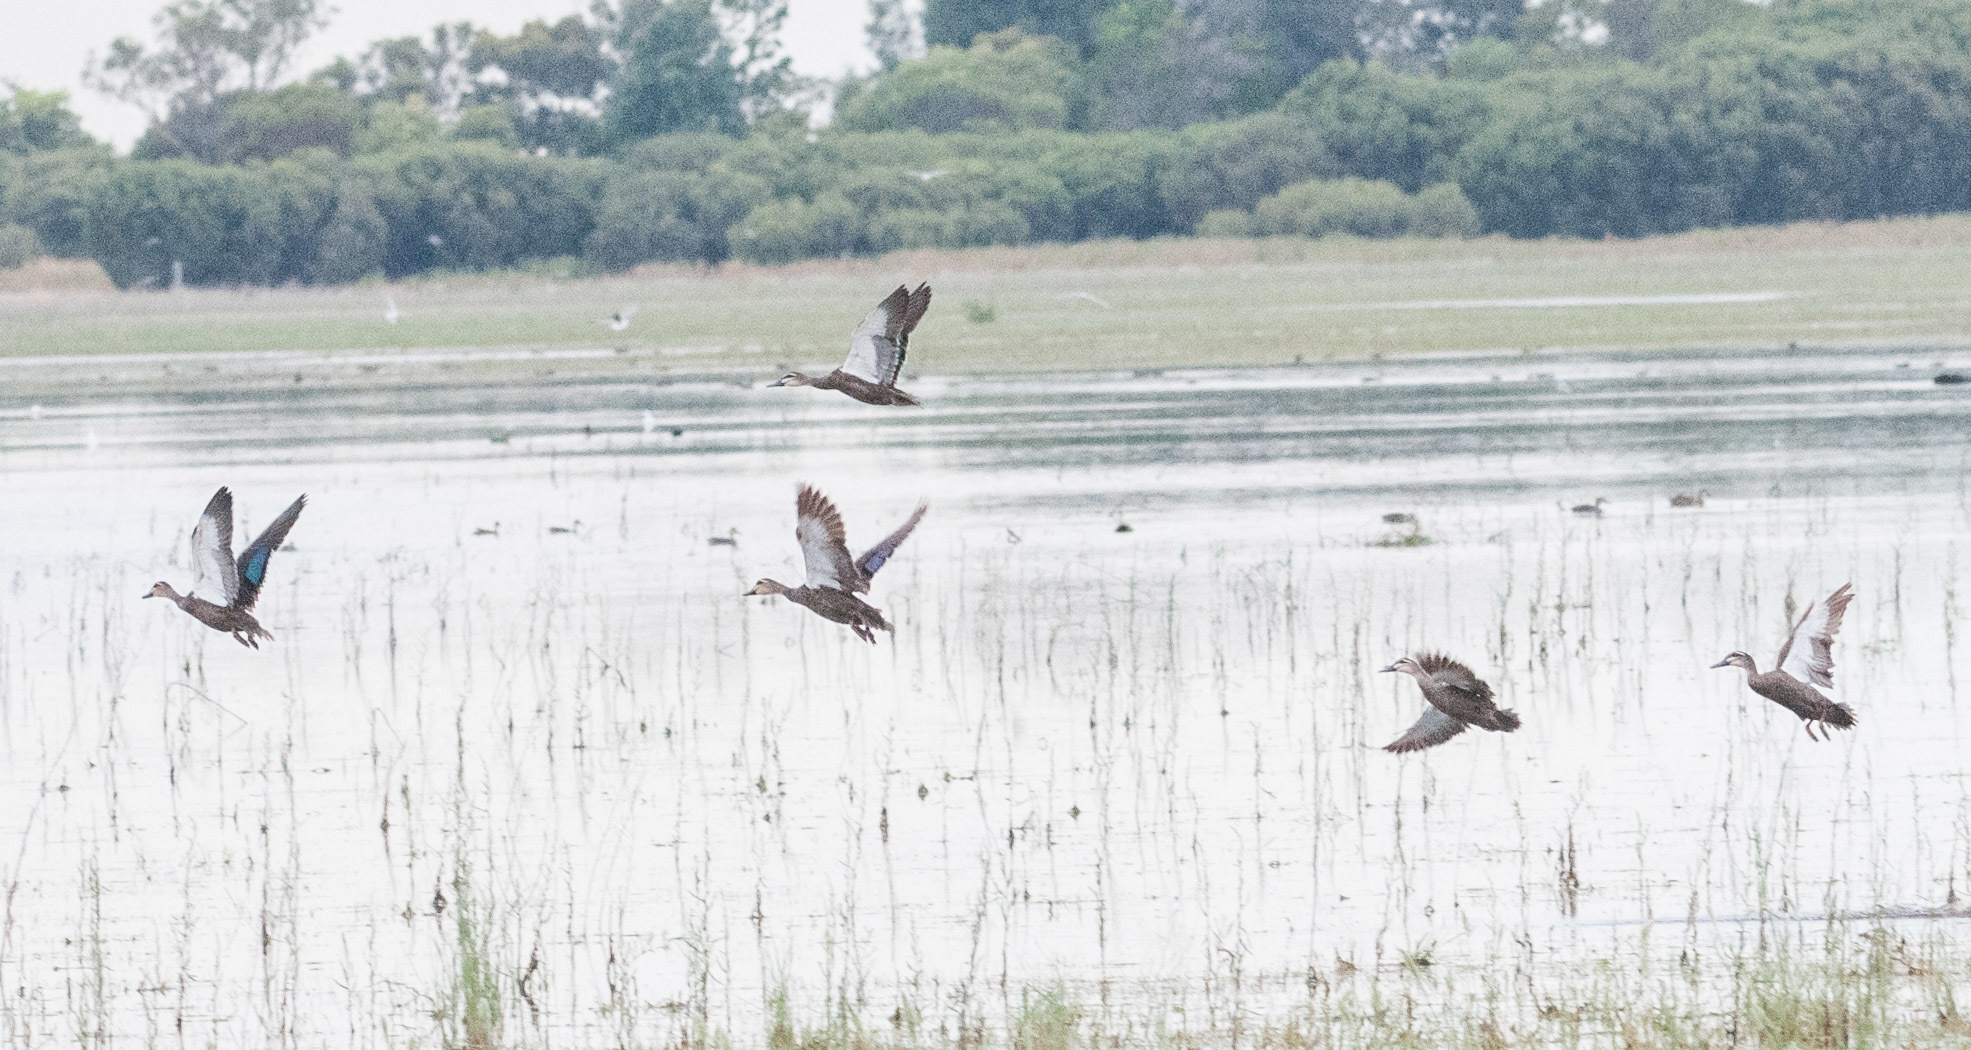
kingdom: Animalia
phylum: Chordata
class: Aves
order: Anseriformes
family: Anatidae
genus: Anas
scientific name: Anas superciliosa
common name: Pacific black duck
